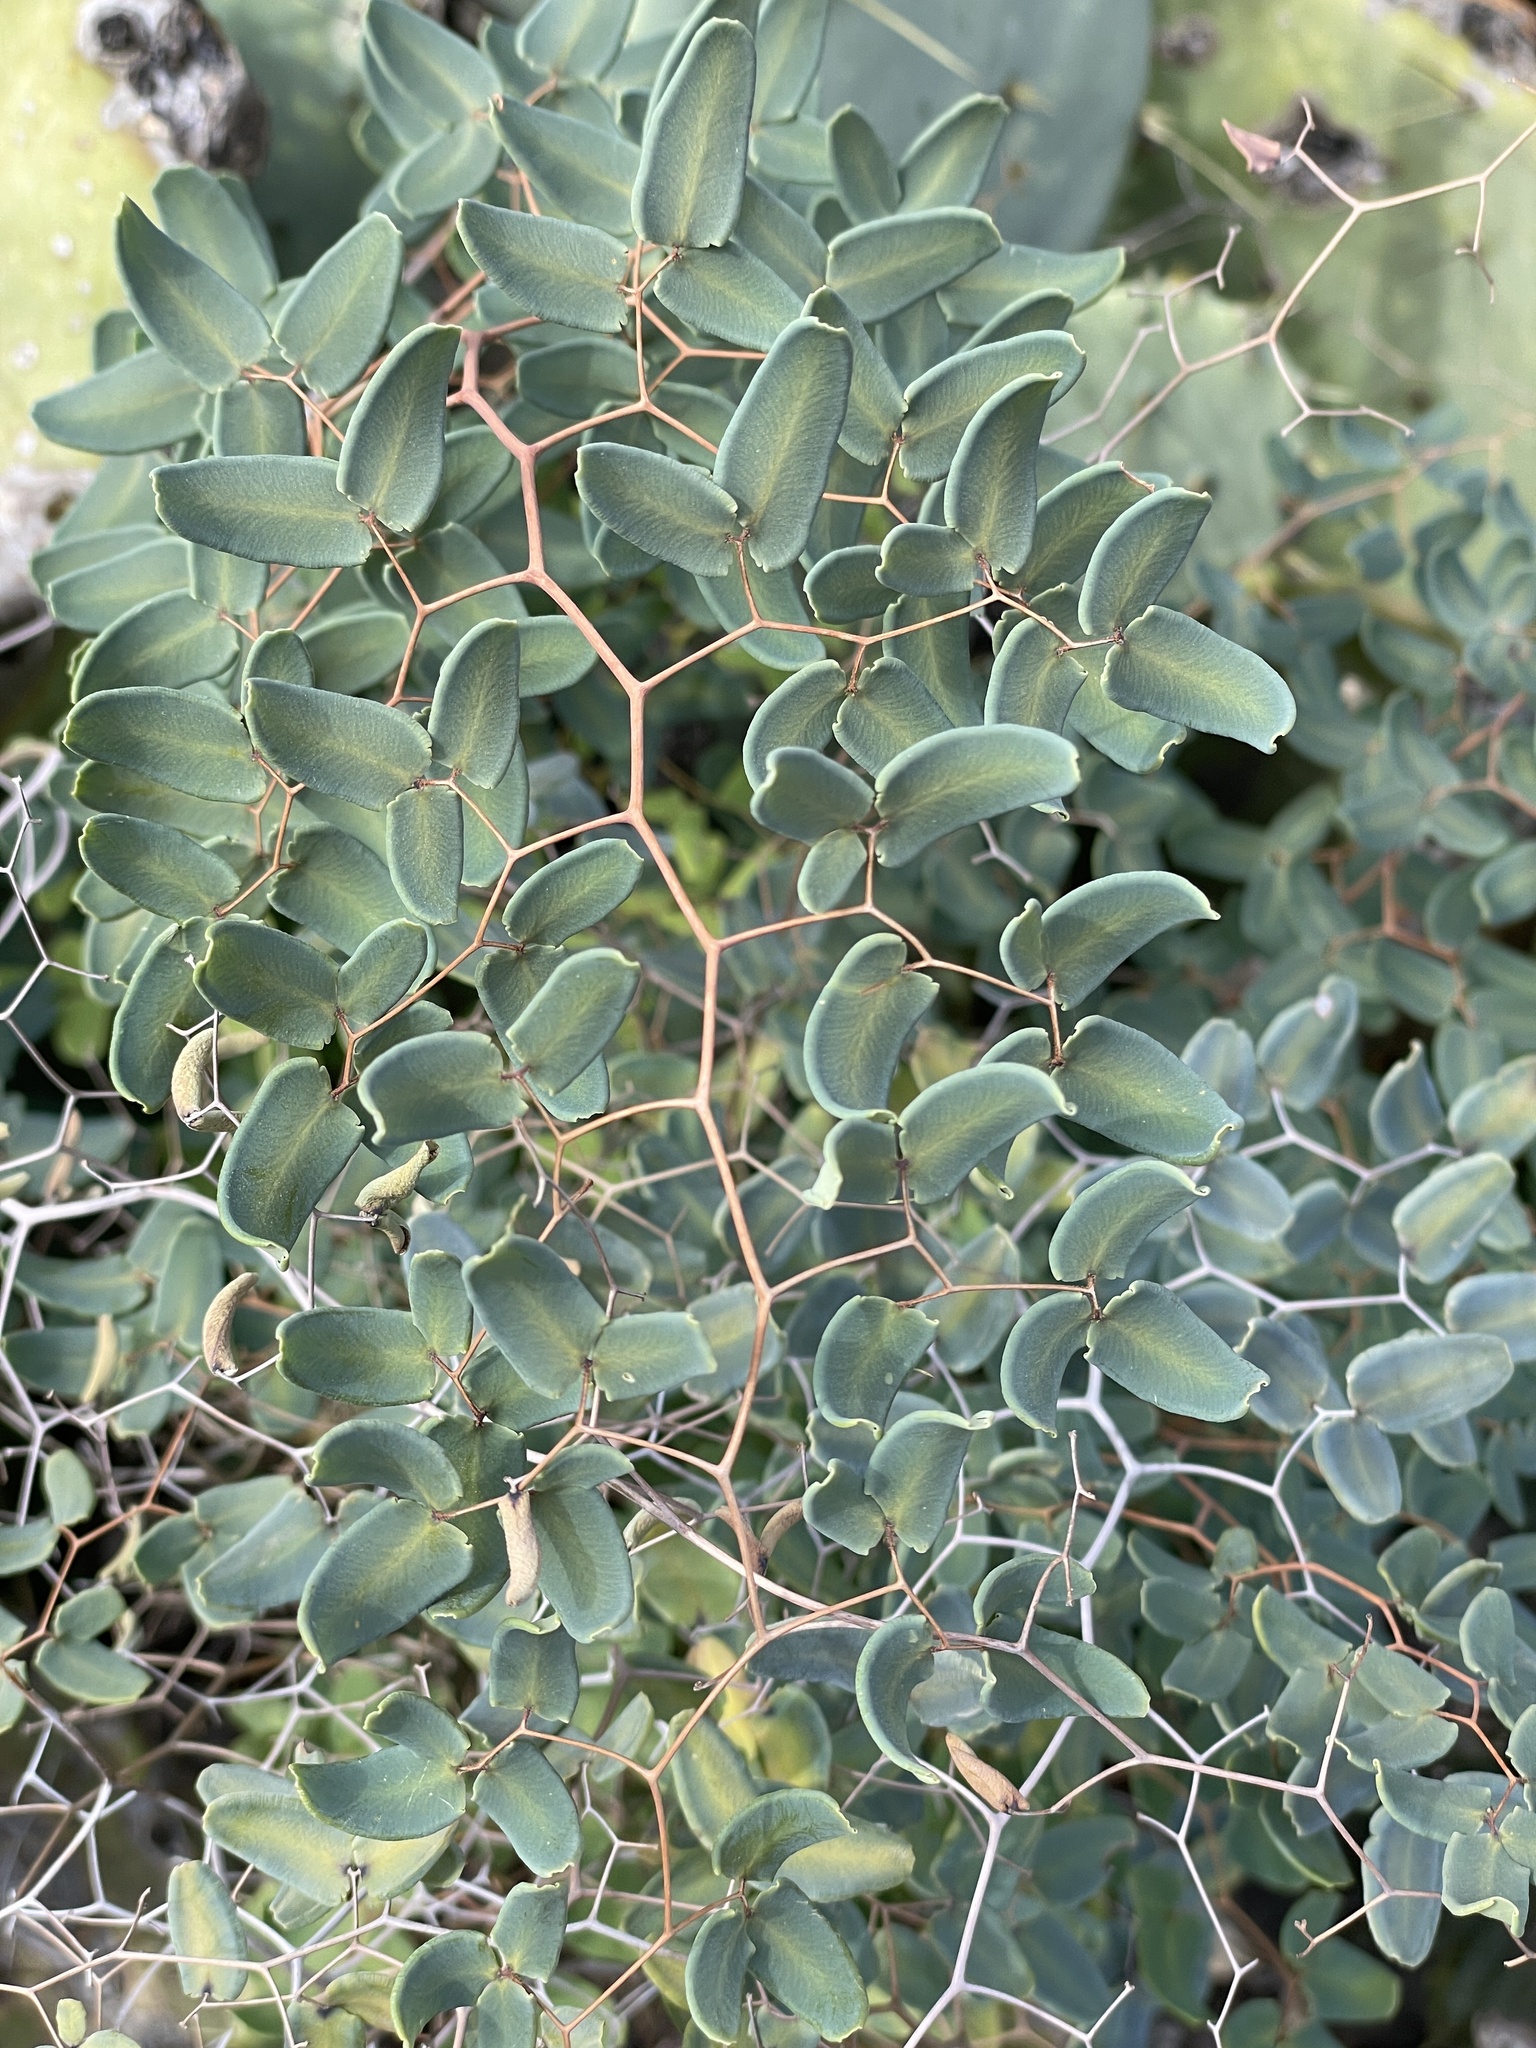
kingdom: Plantae
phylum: Tracheophyta
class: Polypodiopsida
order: Polypodiales
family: Pteridaceae
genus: Pellaea
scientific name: Pellaea ovata
